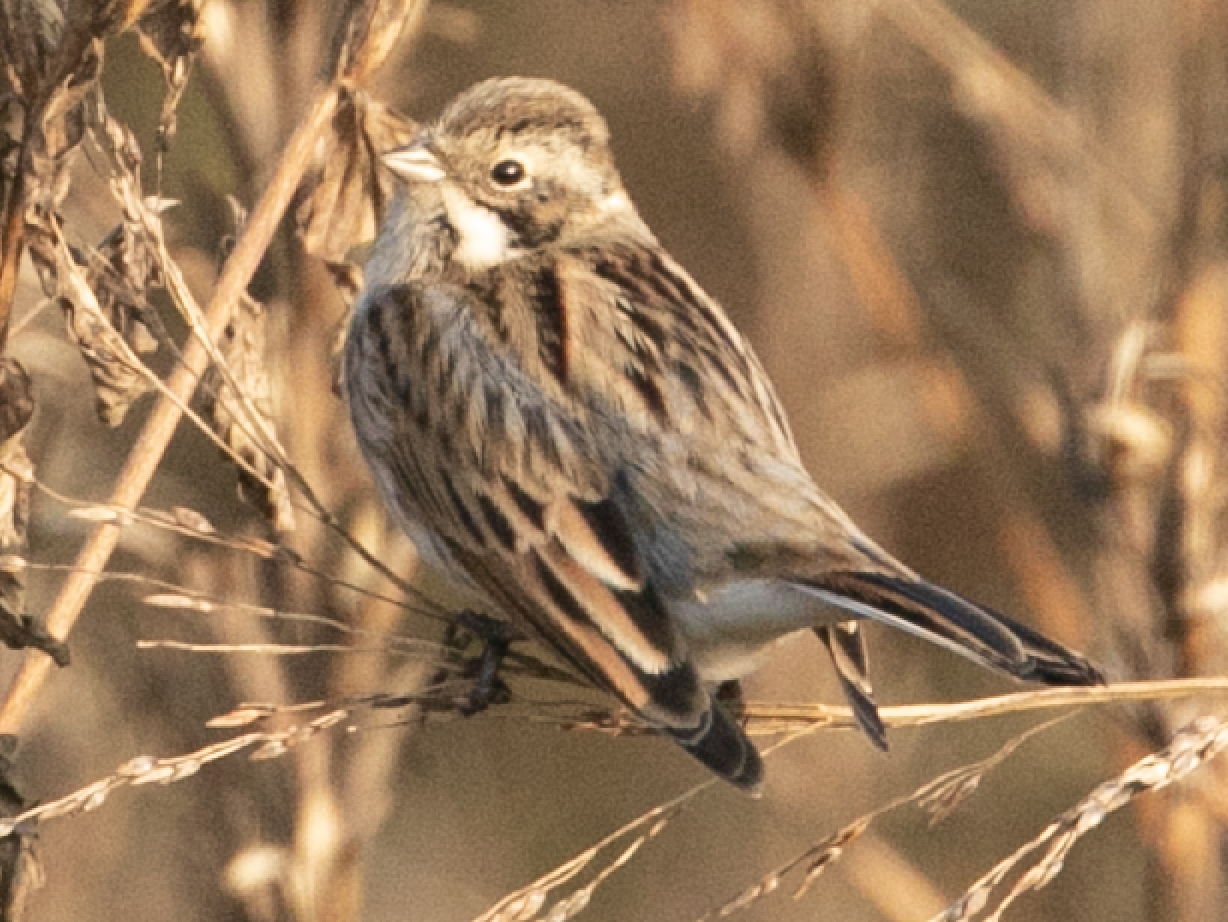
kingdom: Animalia
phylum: Chordata
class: Aves
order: Passeriformes
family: Emberizidae
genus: Emberiza
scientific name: Emberiza schoeniclus
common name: Reed bunting
